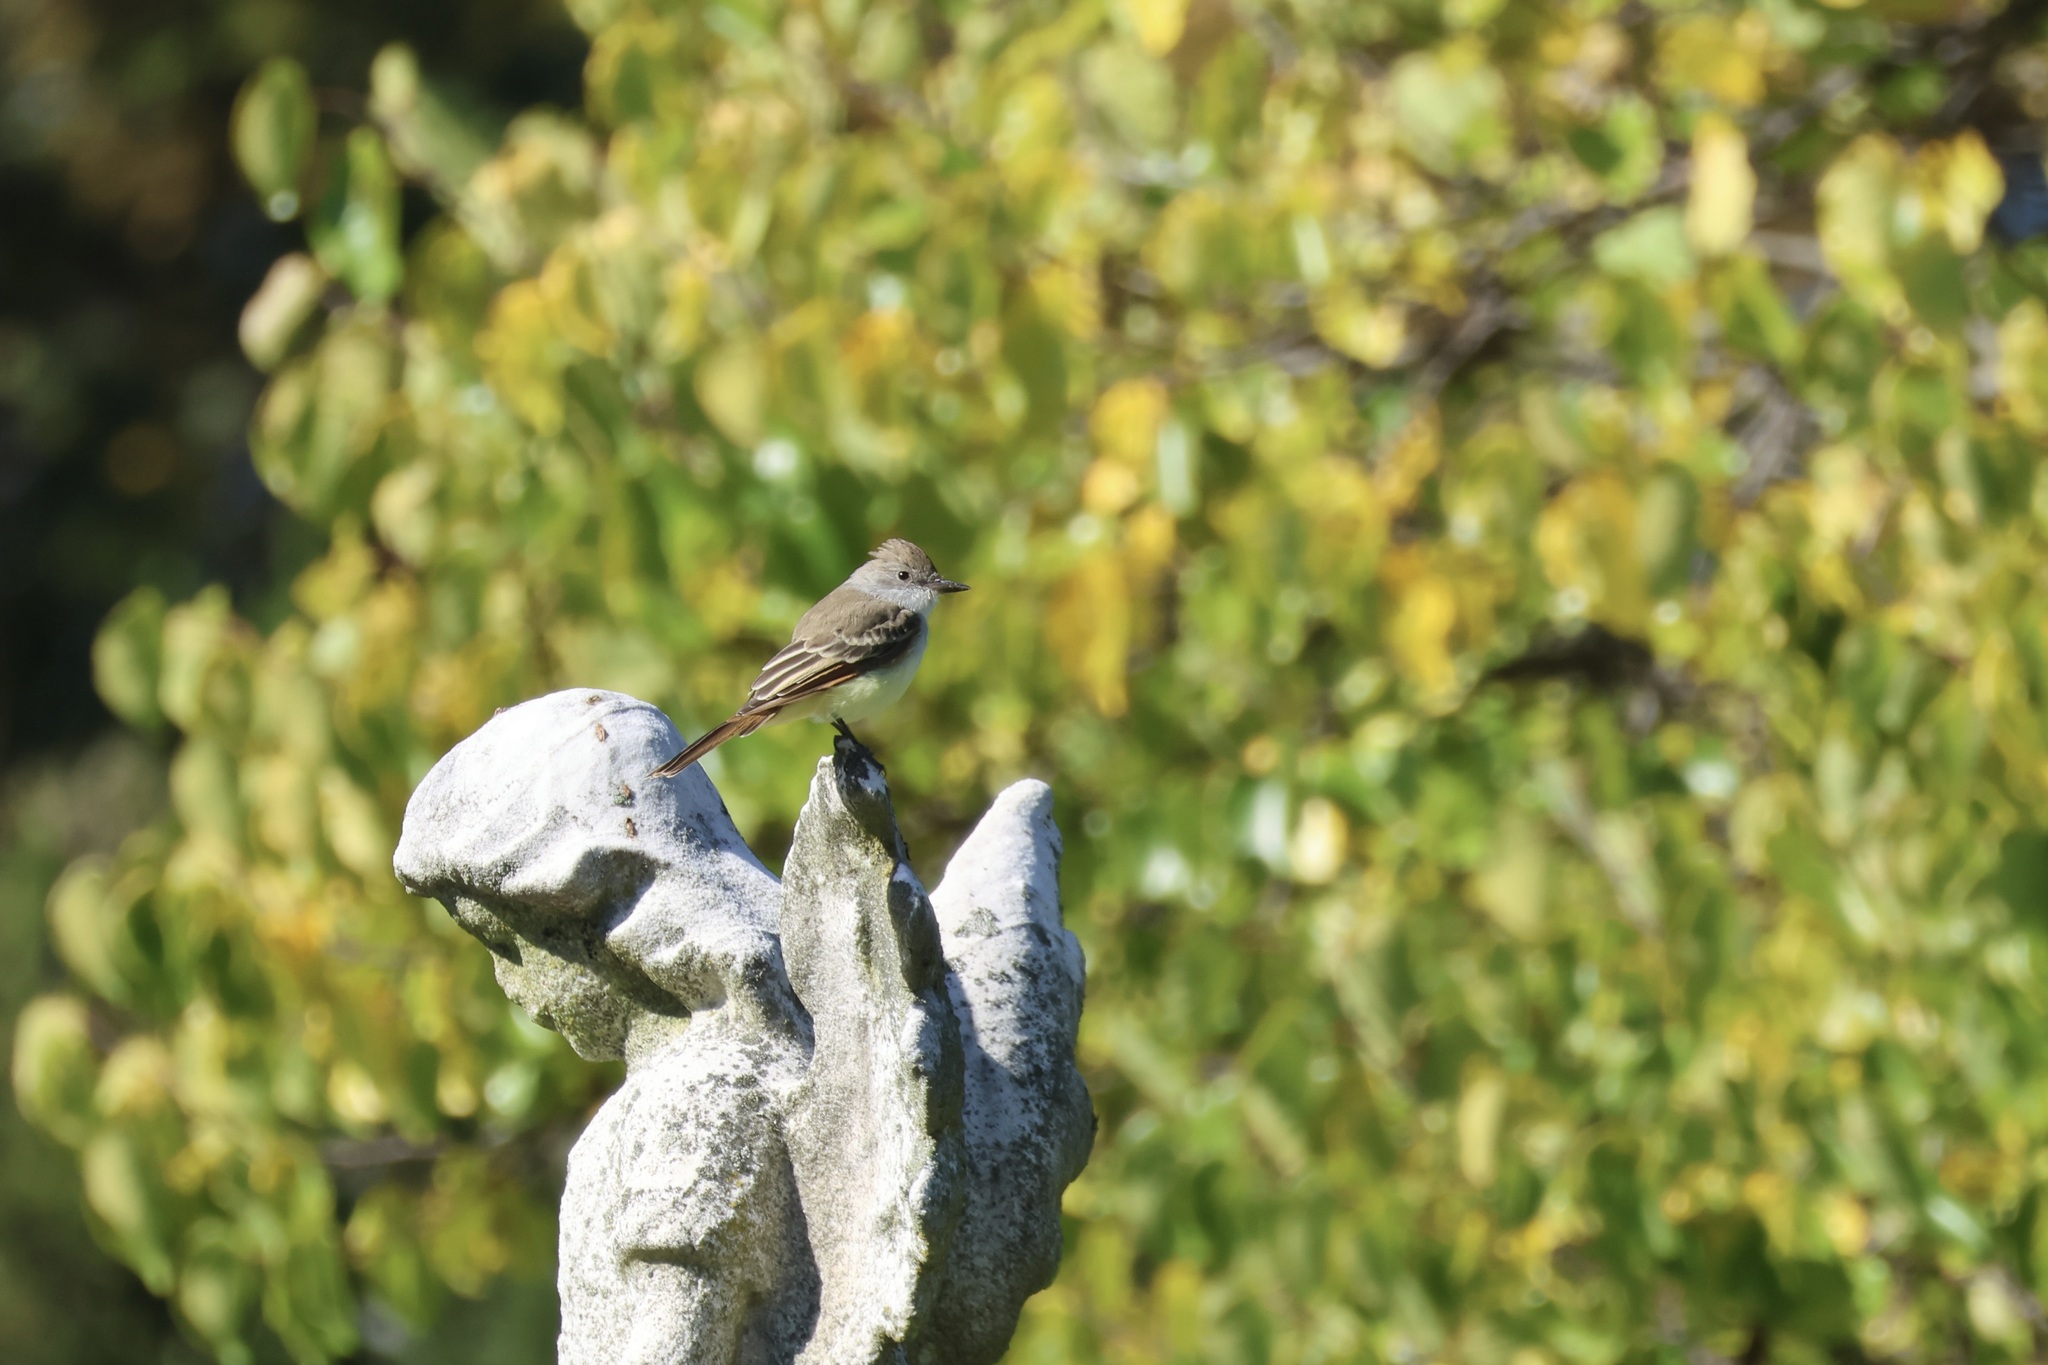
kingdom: Animalia
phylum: Chordata
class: Aves
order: Passeriformes
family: Tyrannidae
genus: Myiarchus
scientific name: Myiarchus cinerascens
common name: Ash-throated flycatcher
